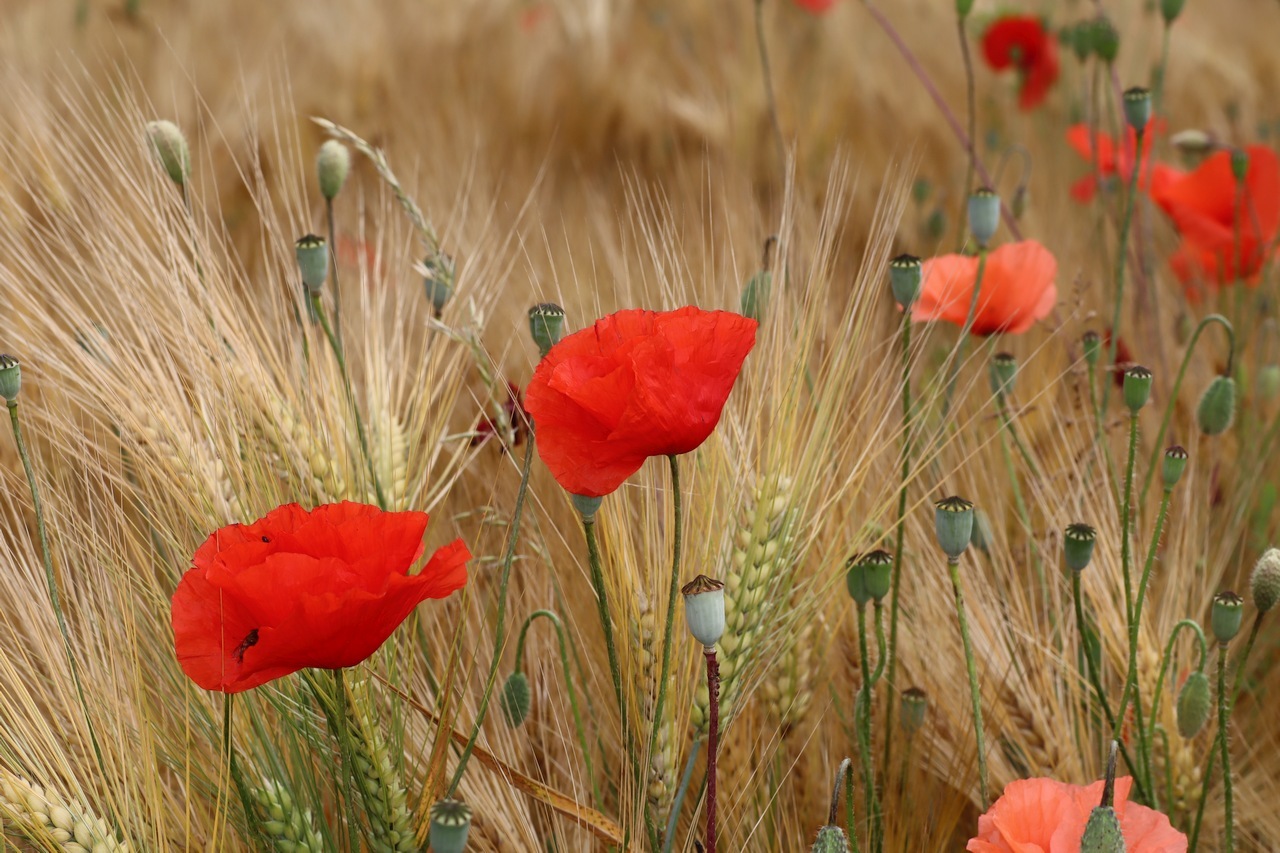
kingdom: Plantae
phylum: Tracheophyta
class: Magnoliopsida
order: Ranunculales
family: Papaveraceae
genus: Papaver
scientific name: Papaver rhoeas
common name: Corn poppy
